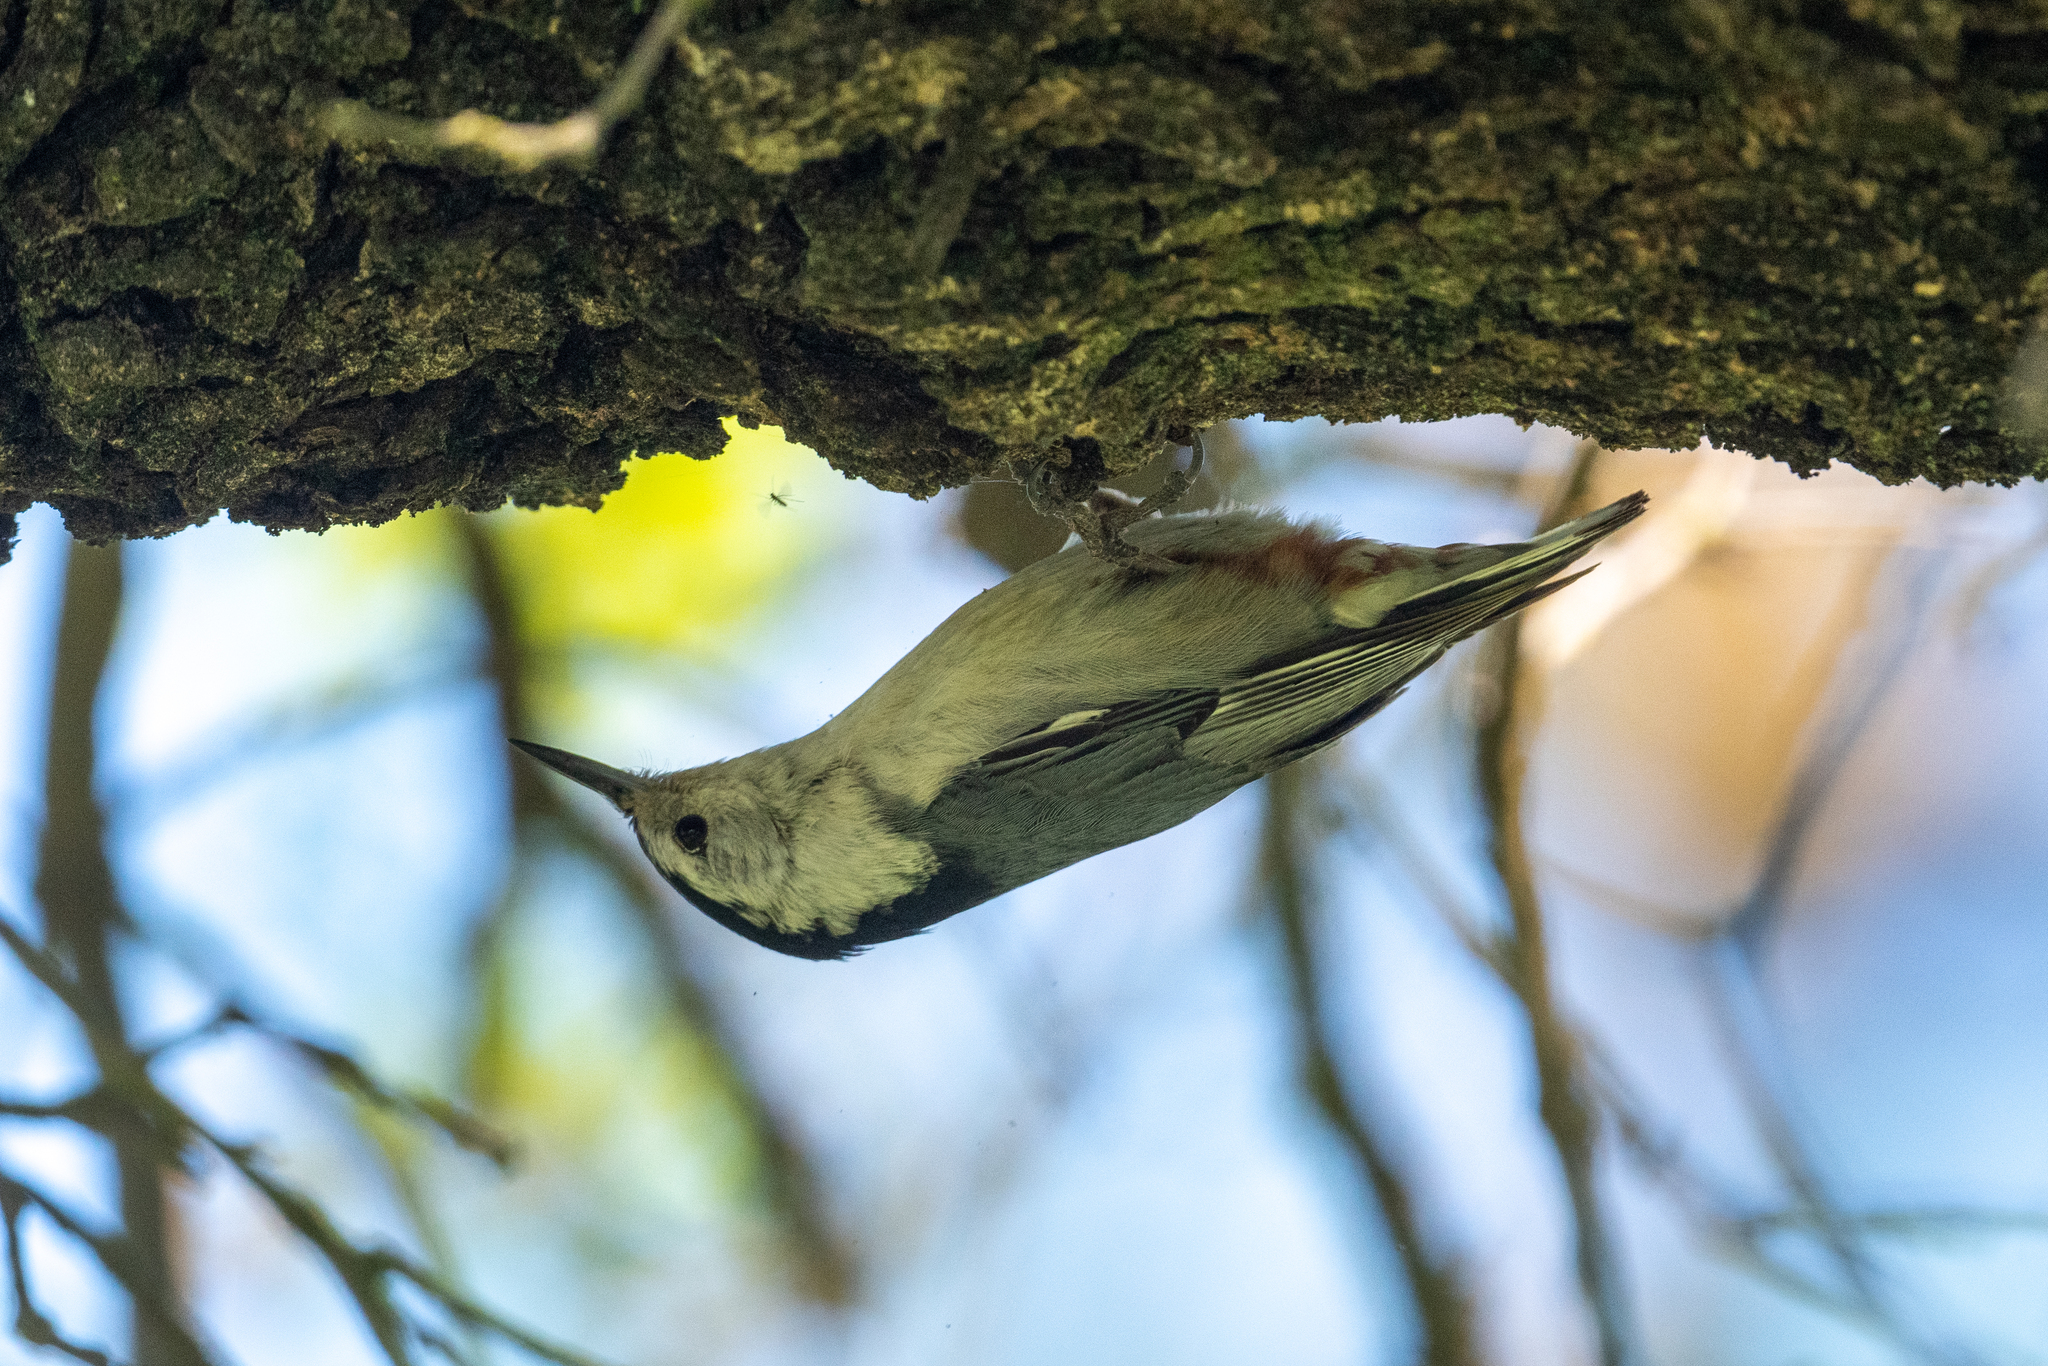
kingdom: Animalia
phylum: Chordata
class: Aves
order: Passeriformes
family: Sittidae
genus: Sitta
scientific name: Sitta carolinensis
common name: White-breasted nuthatch
